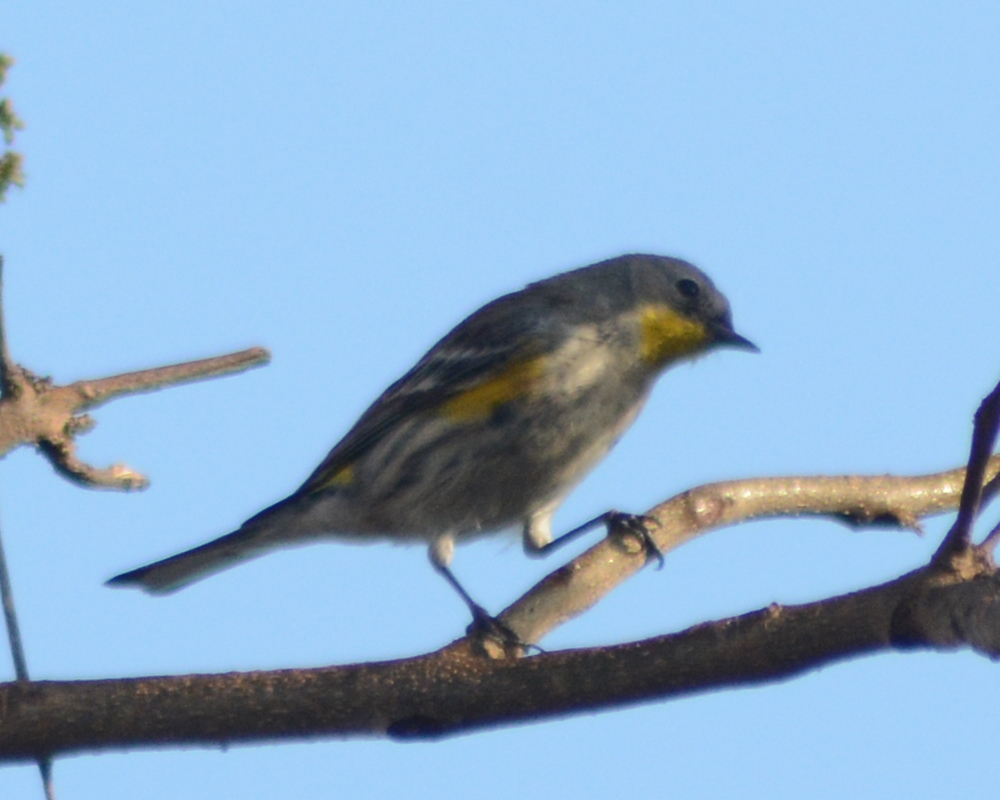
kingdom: Animalia
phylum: Chordata
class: Aves
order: Passeriformes
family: Parulidae
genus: Setophaga
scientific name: Setophaga auduboni
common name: Audubon's warbler
